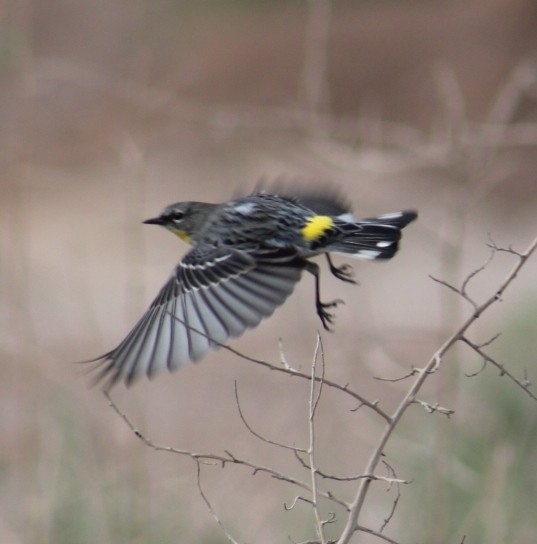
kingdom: Animalia
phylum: Chordata
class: Aves
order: Passeriformes
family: Parulidae
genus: Setophaga
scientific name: Setophaga coronata
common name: Myrtle warbler
